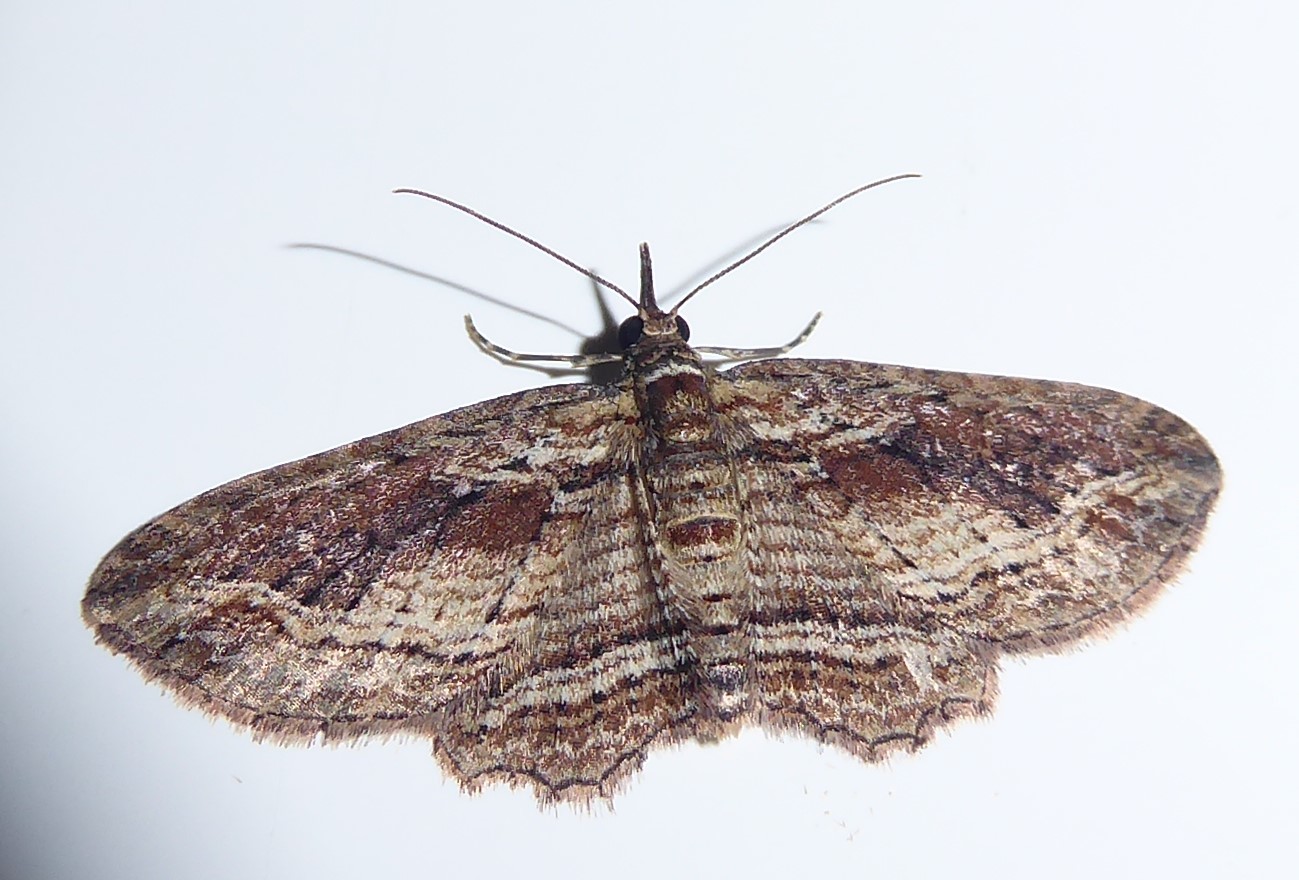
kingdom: Animalia
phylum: Arthropoda
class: Insecta
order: Lepidoptera
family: Geometridae
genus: Chloroclystis
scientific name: Chloroclystis filata
